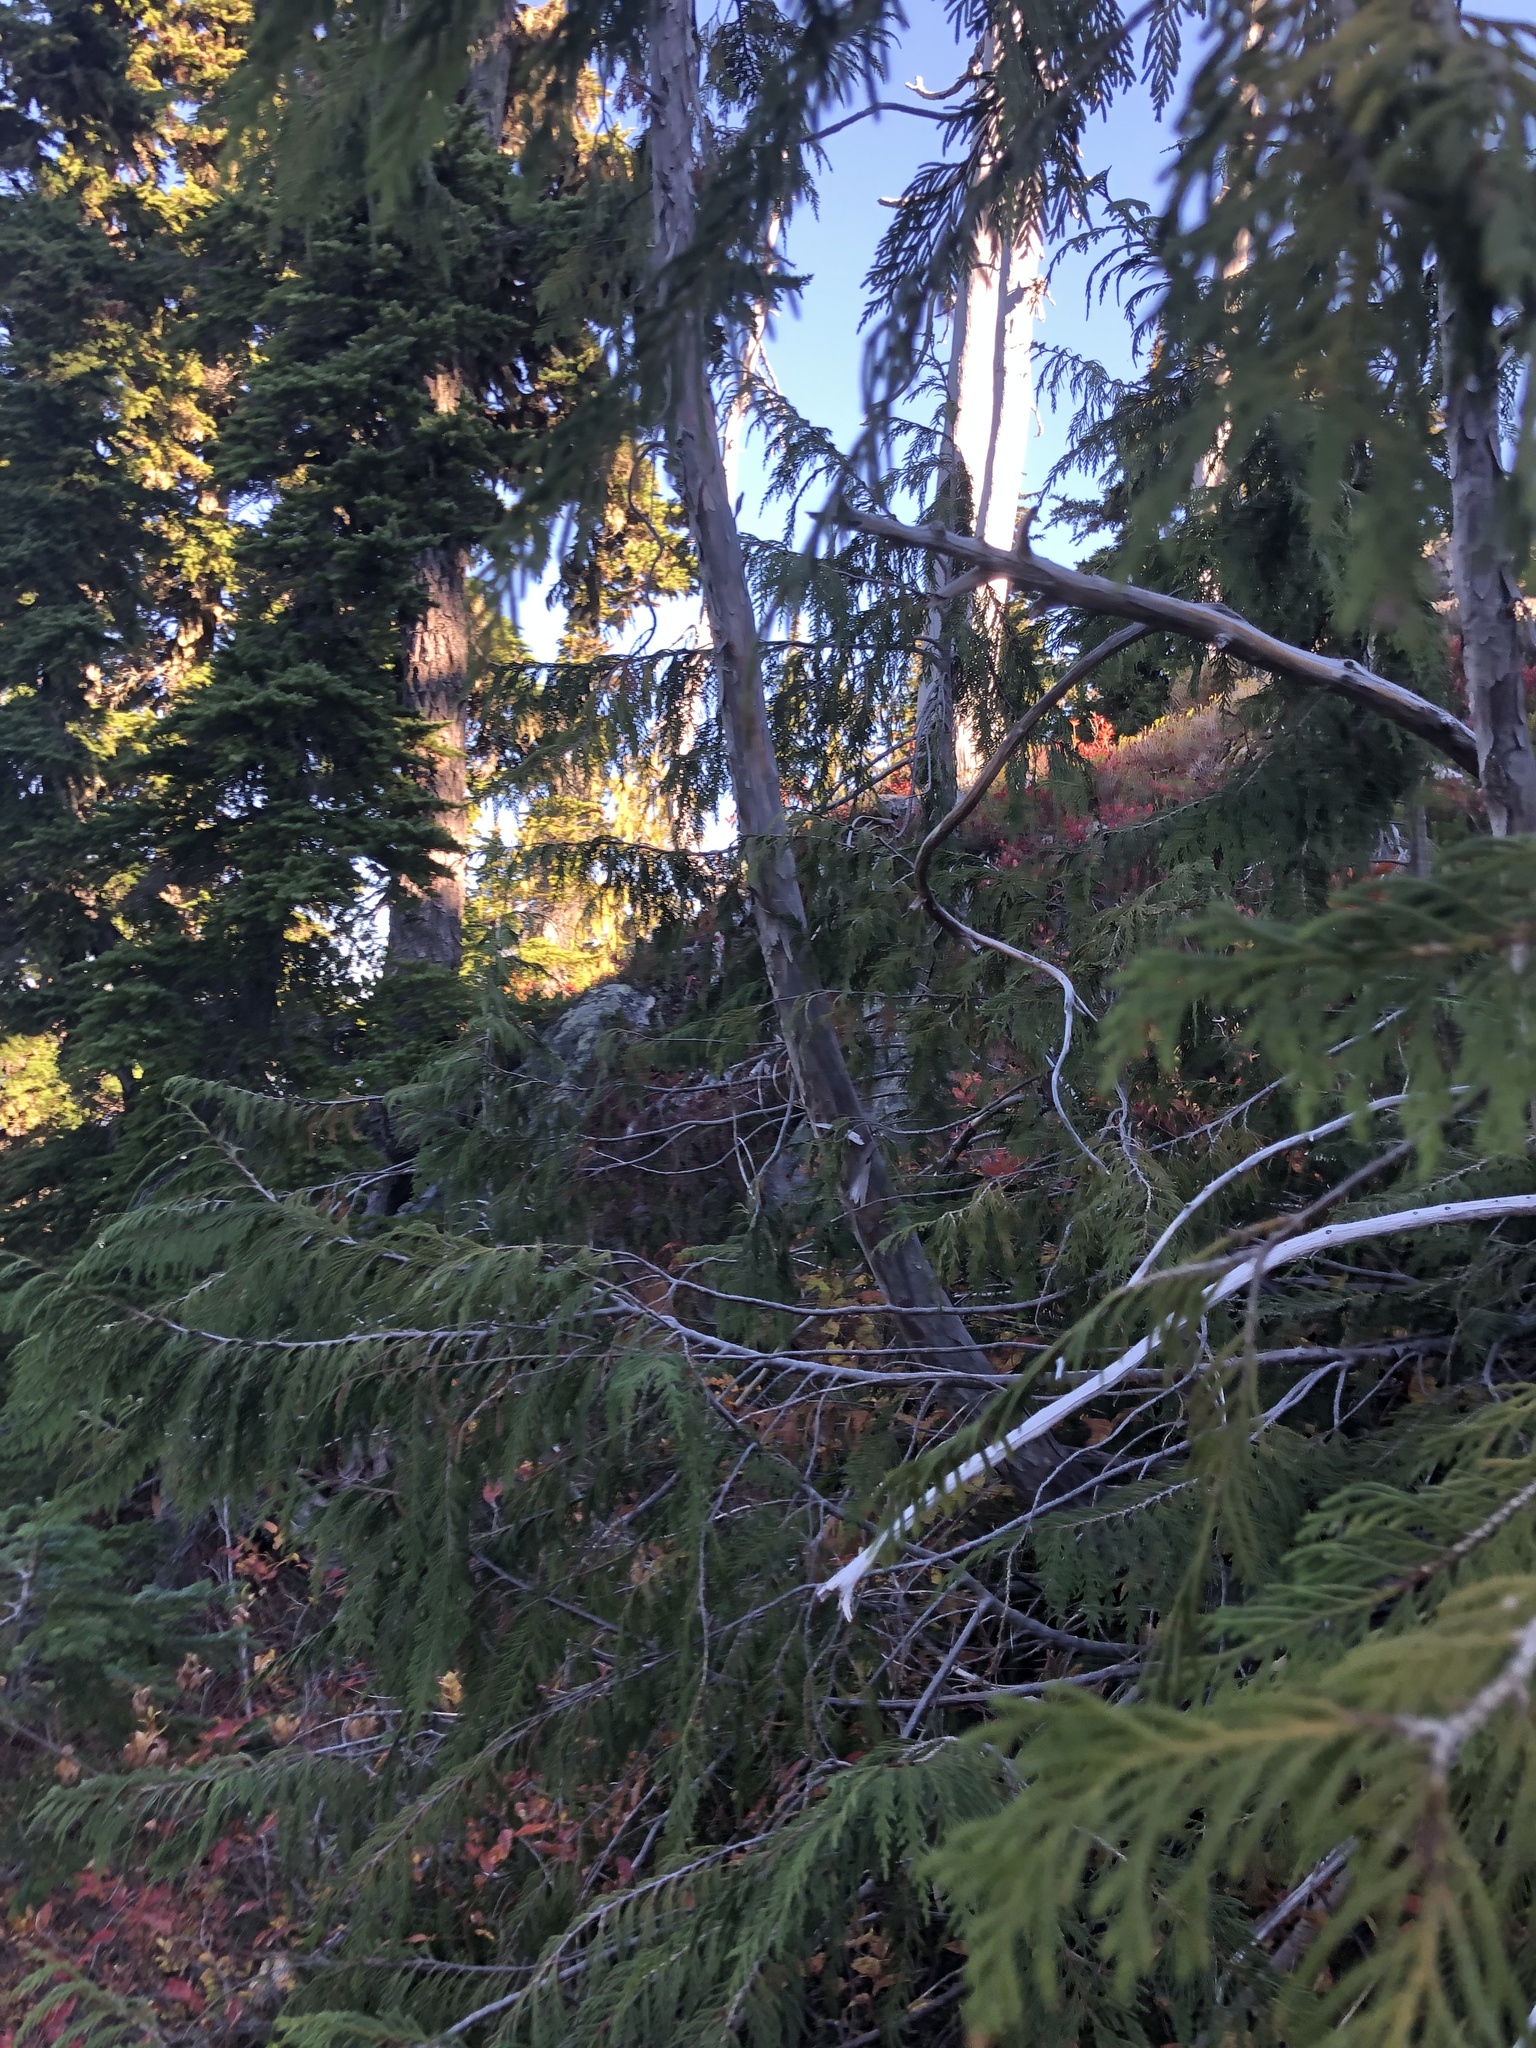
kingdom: Plantae
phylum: Tracheophyta
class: Pinopsida
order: Pinales
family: Cupressaceae
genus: Xanthocyparis
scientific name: Xanthocyparis nootkatensis
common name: Nootka cypress
